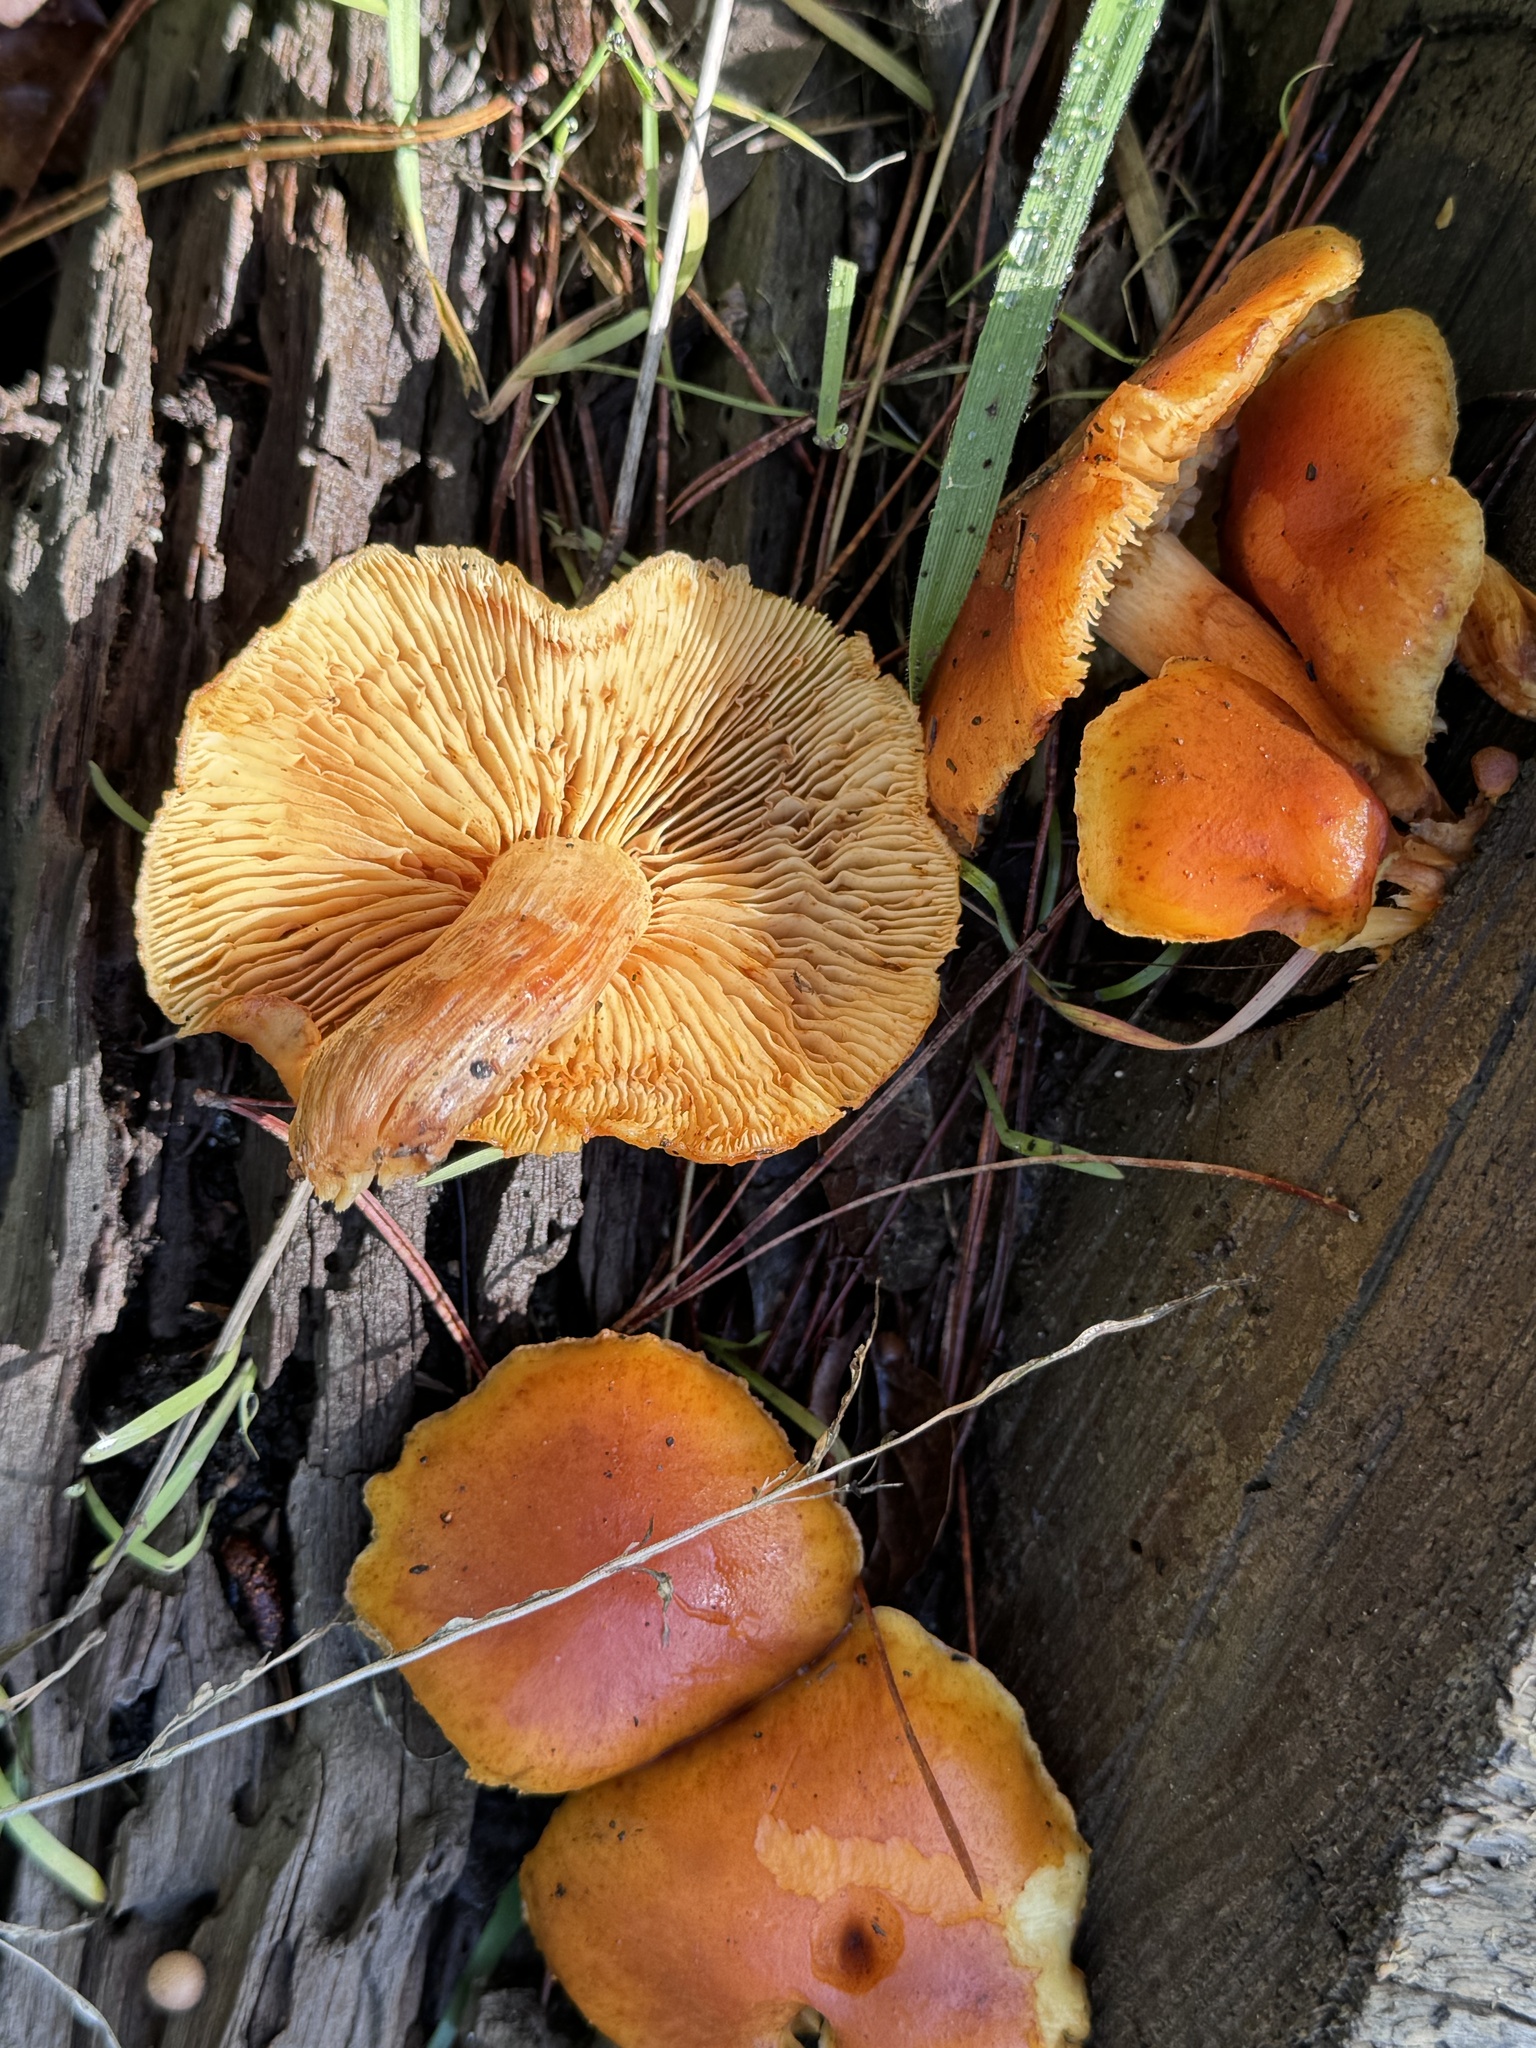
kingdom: Fungi
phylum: Basidiomycota
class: Agaricomycetes
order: Agaricales
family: Hymenogastraceae
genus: Gymnopilus
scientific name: Gymnopilus aurantiophyllus
